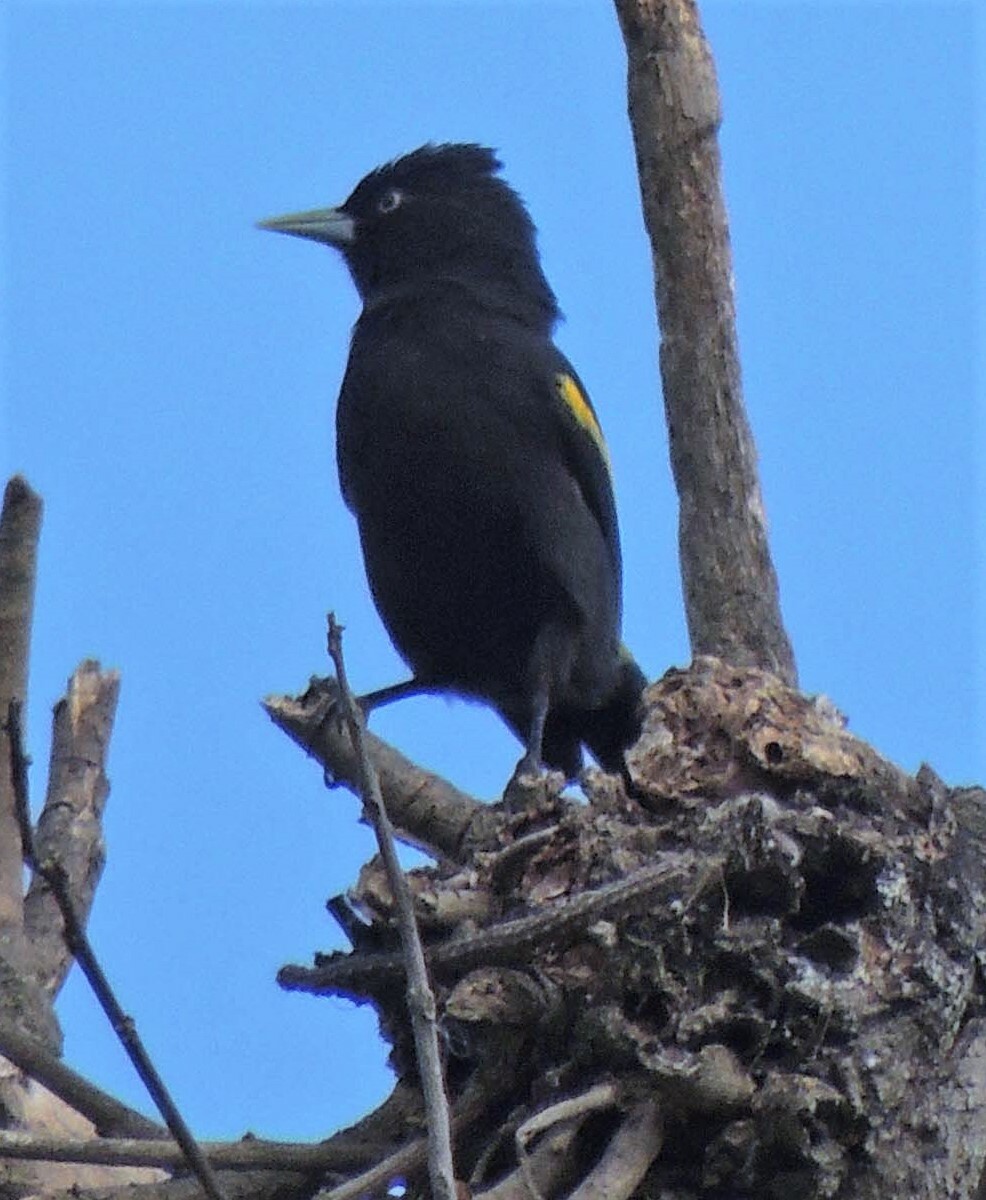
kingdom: Animalia
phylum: Chordata
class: Aves
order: Passeriformes
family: Icteridae
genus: Cacicus
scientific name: Cacicus chrysopterus
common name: Golden-winged cacique
